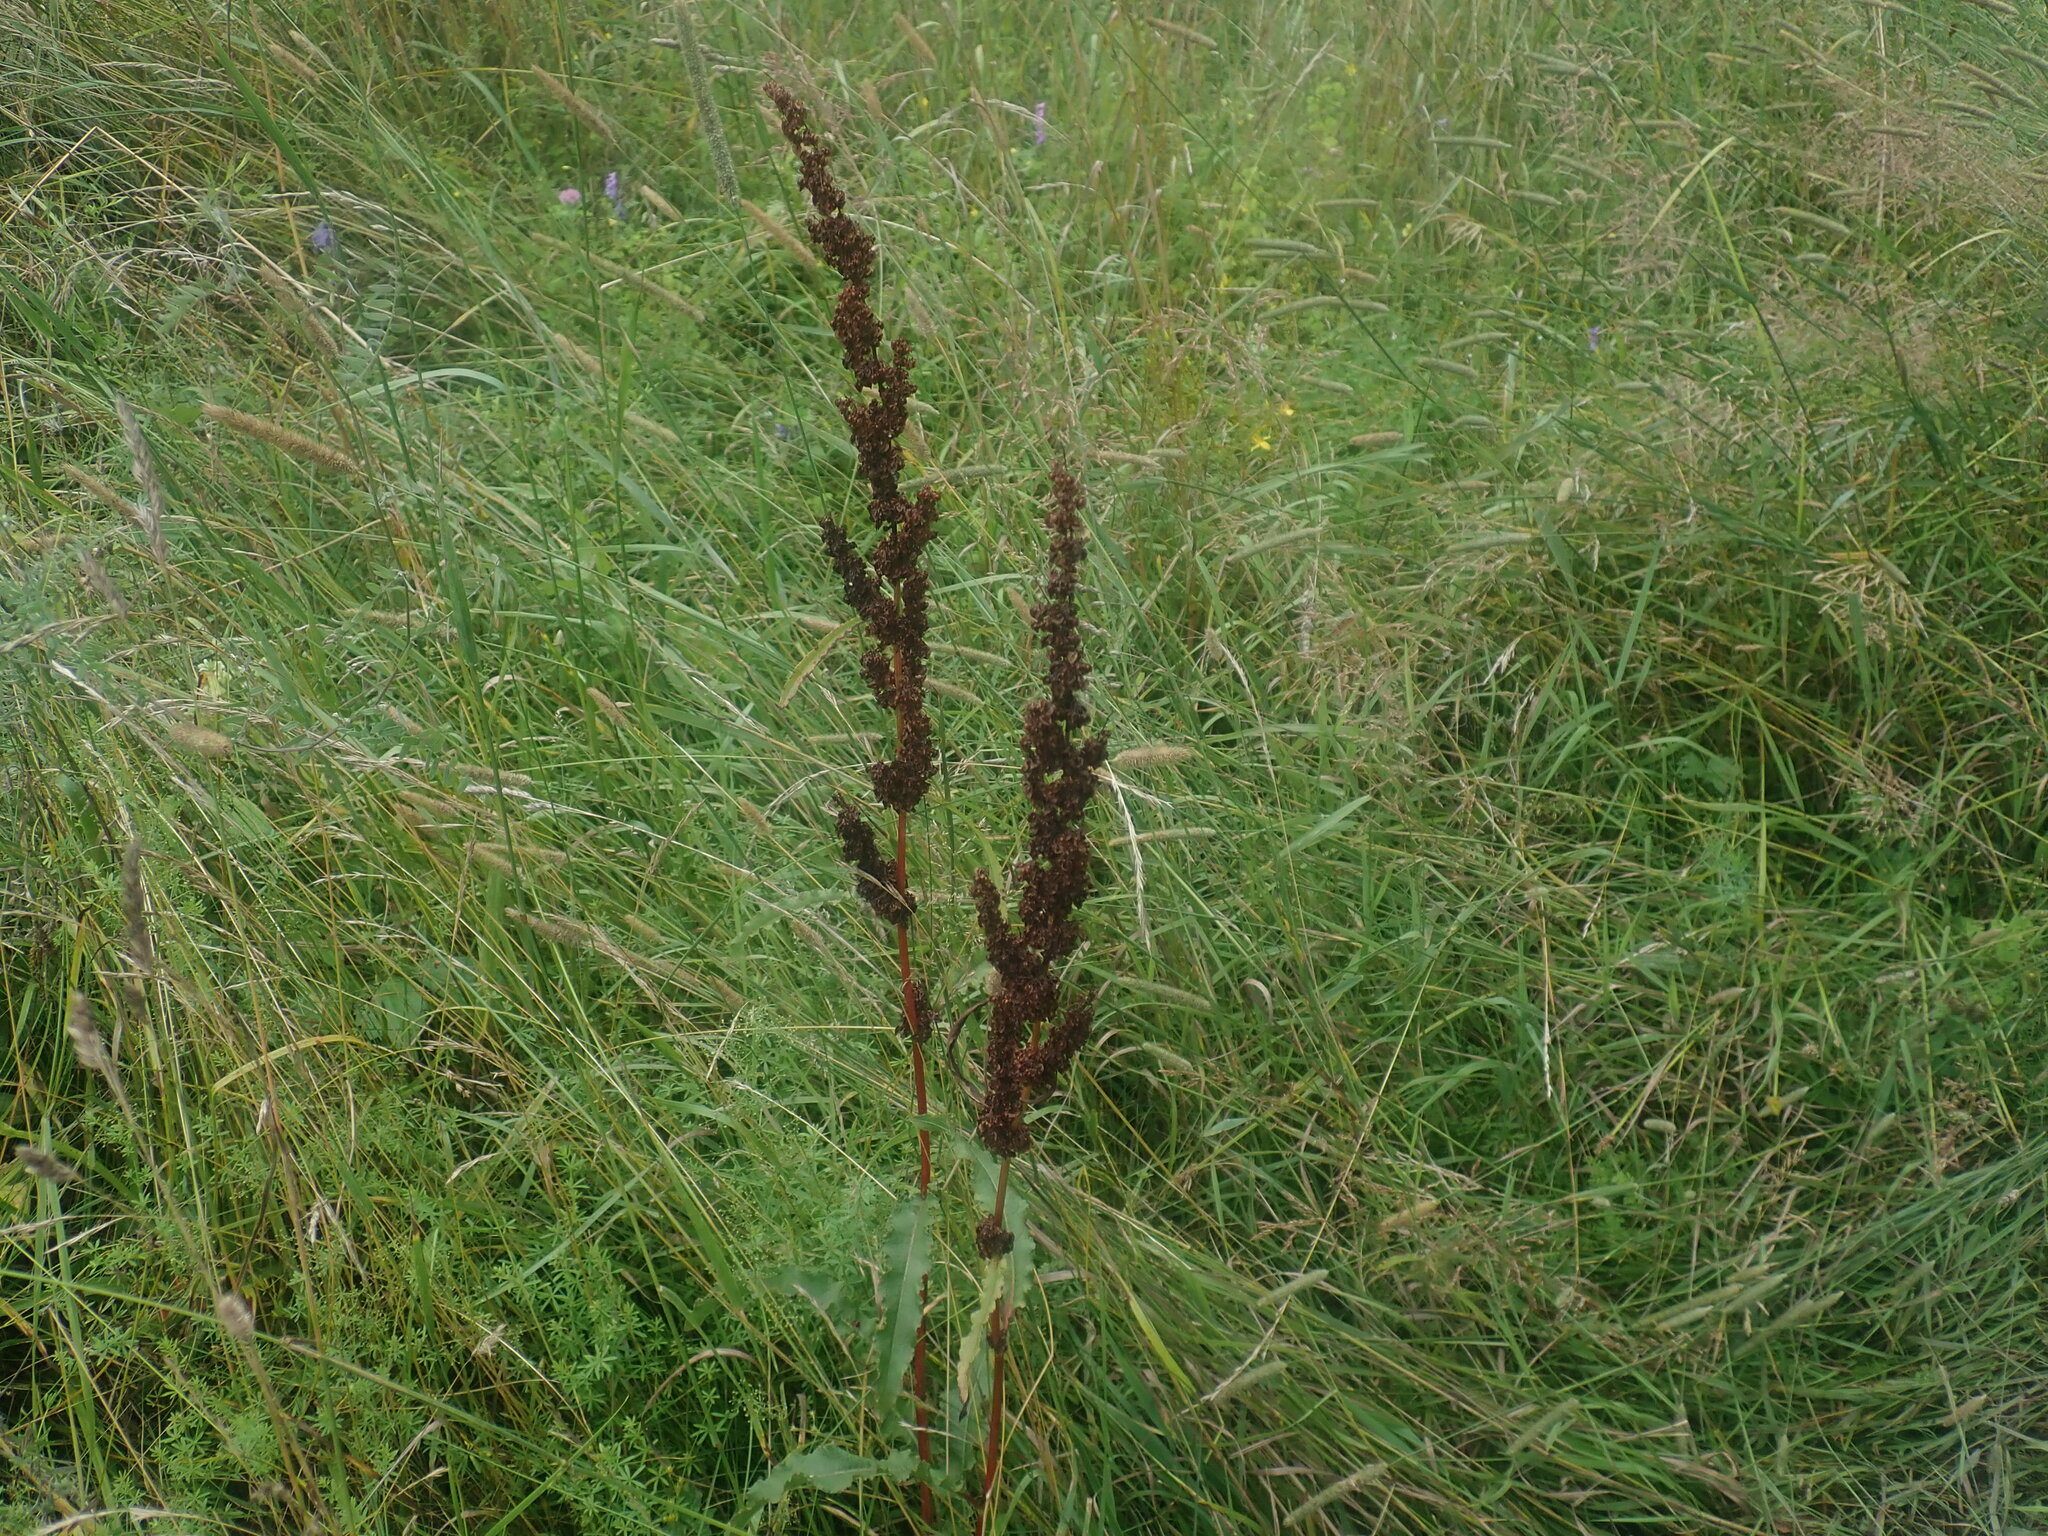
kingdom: Plantae
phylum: Tracheophyta
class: Magnoliopsida
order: Caryophyllales
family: Polygonaceae
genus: Rumex
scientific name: Rumex crispus
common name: Curled dock
